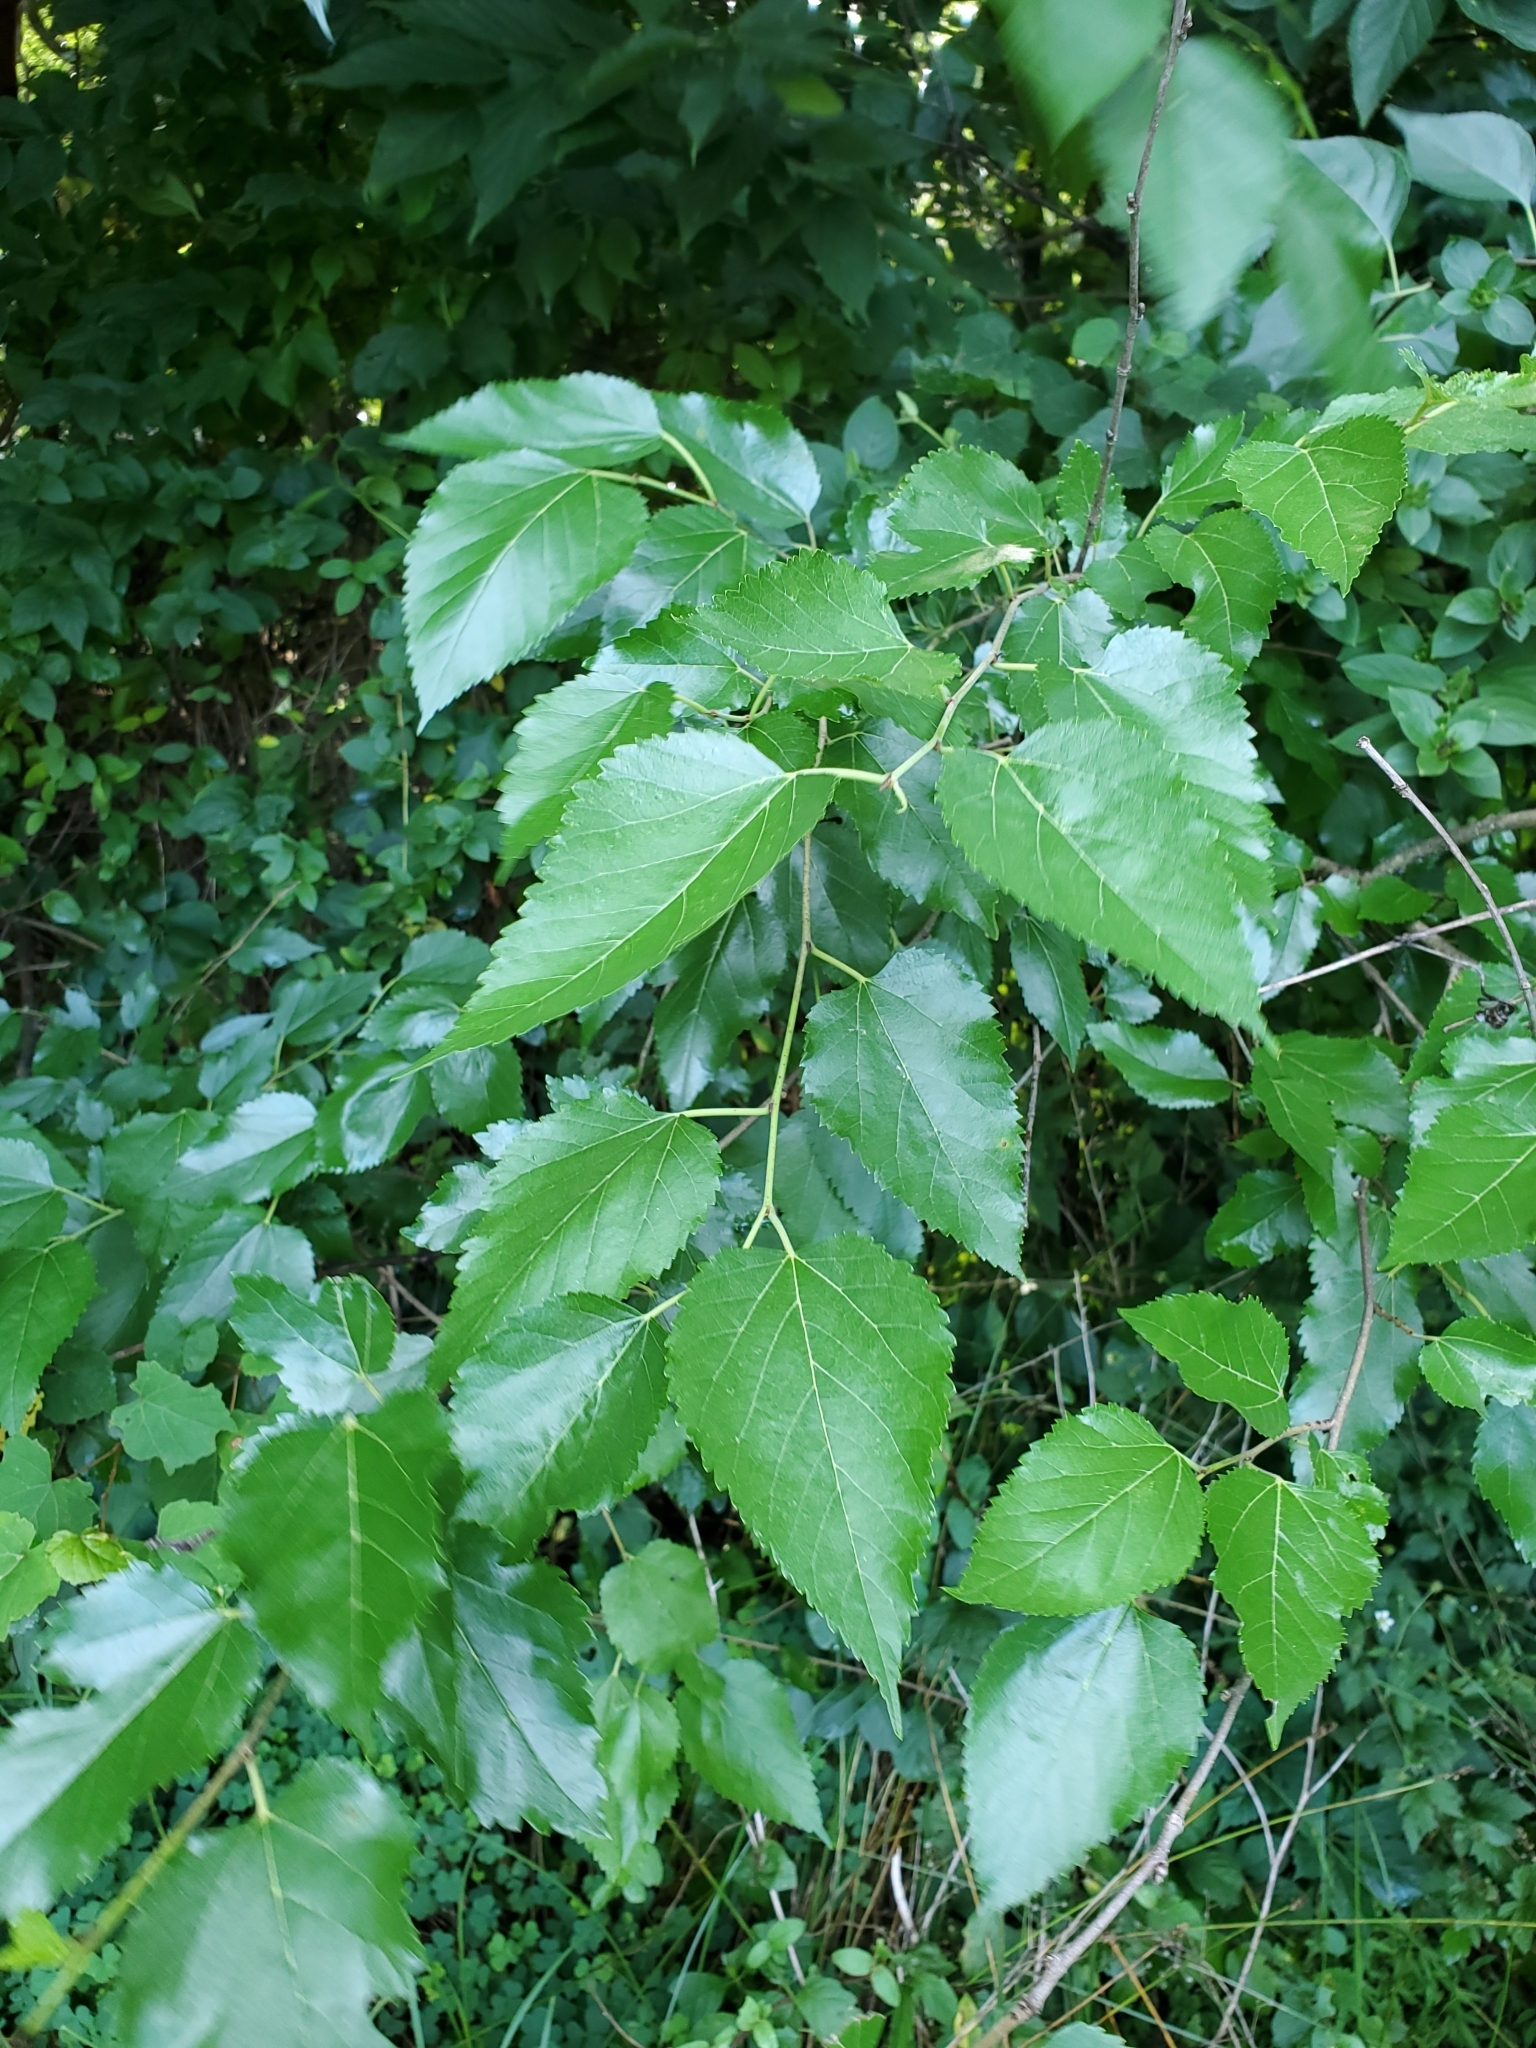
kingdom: Plantae
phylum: Tracheophyta
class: Magnoliopsida
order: Rosales
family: Moraceae
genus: Morus
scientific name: Morus alba
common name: White mulberry
